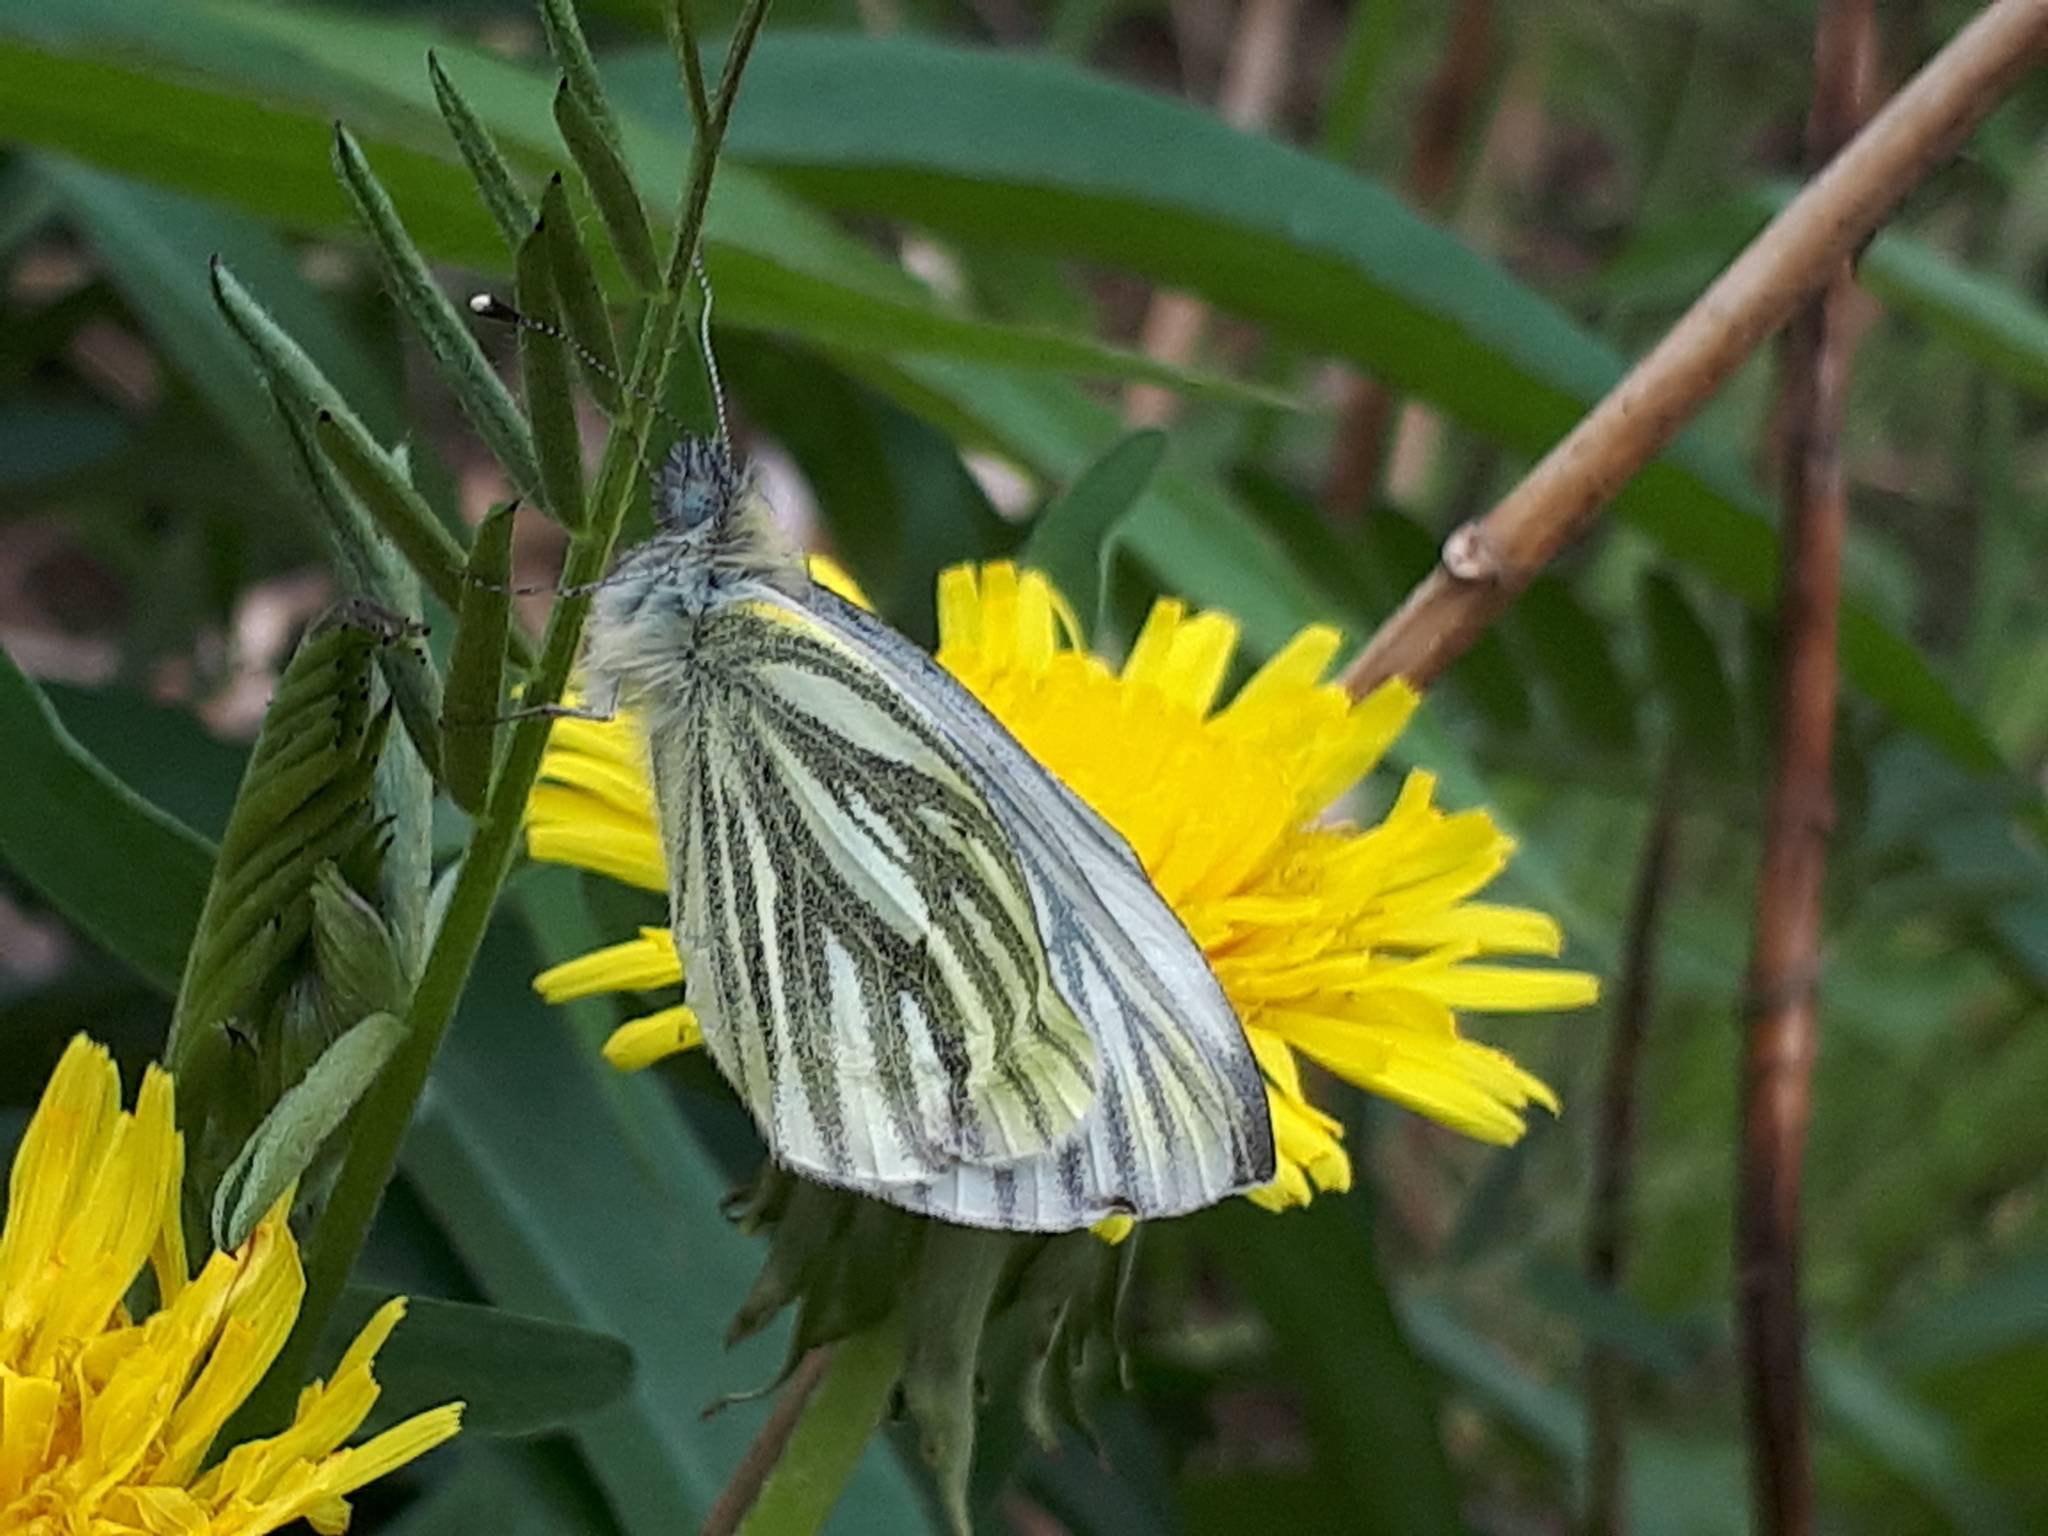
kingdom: Animalia
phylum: Arthropoda
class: Insecta
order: Lepidoptera
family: Pieridae
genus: Pieris
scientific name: Pieris napi
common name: Green-veined white
